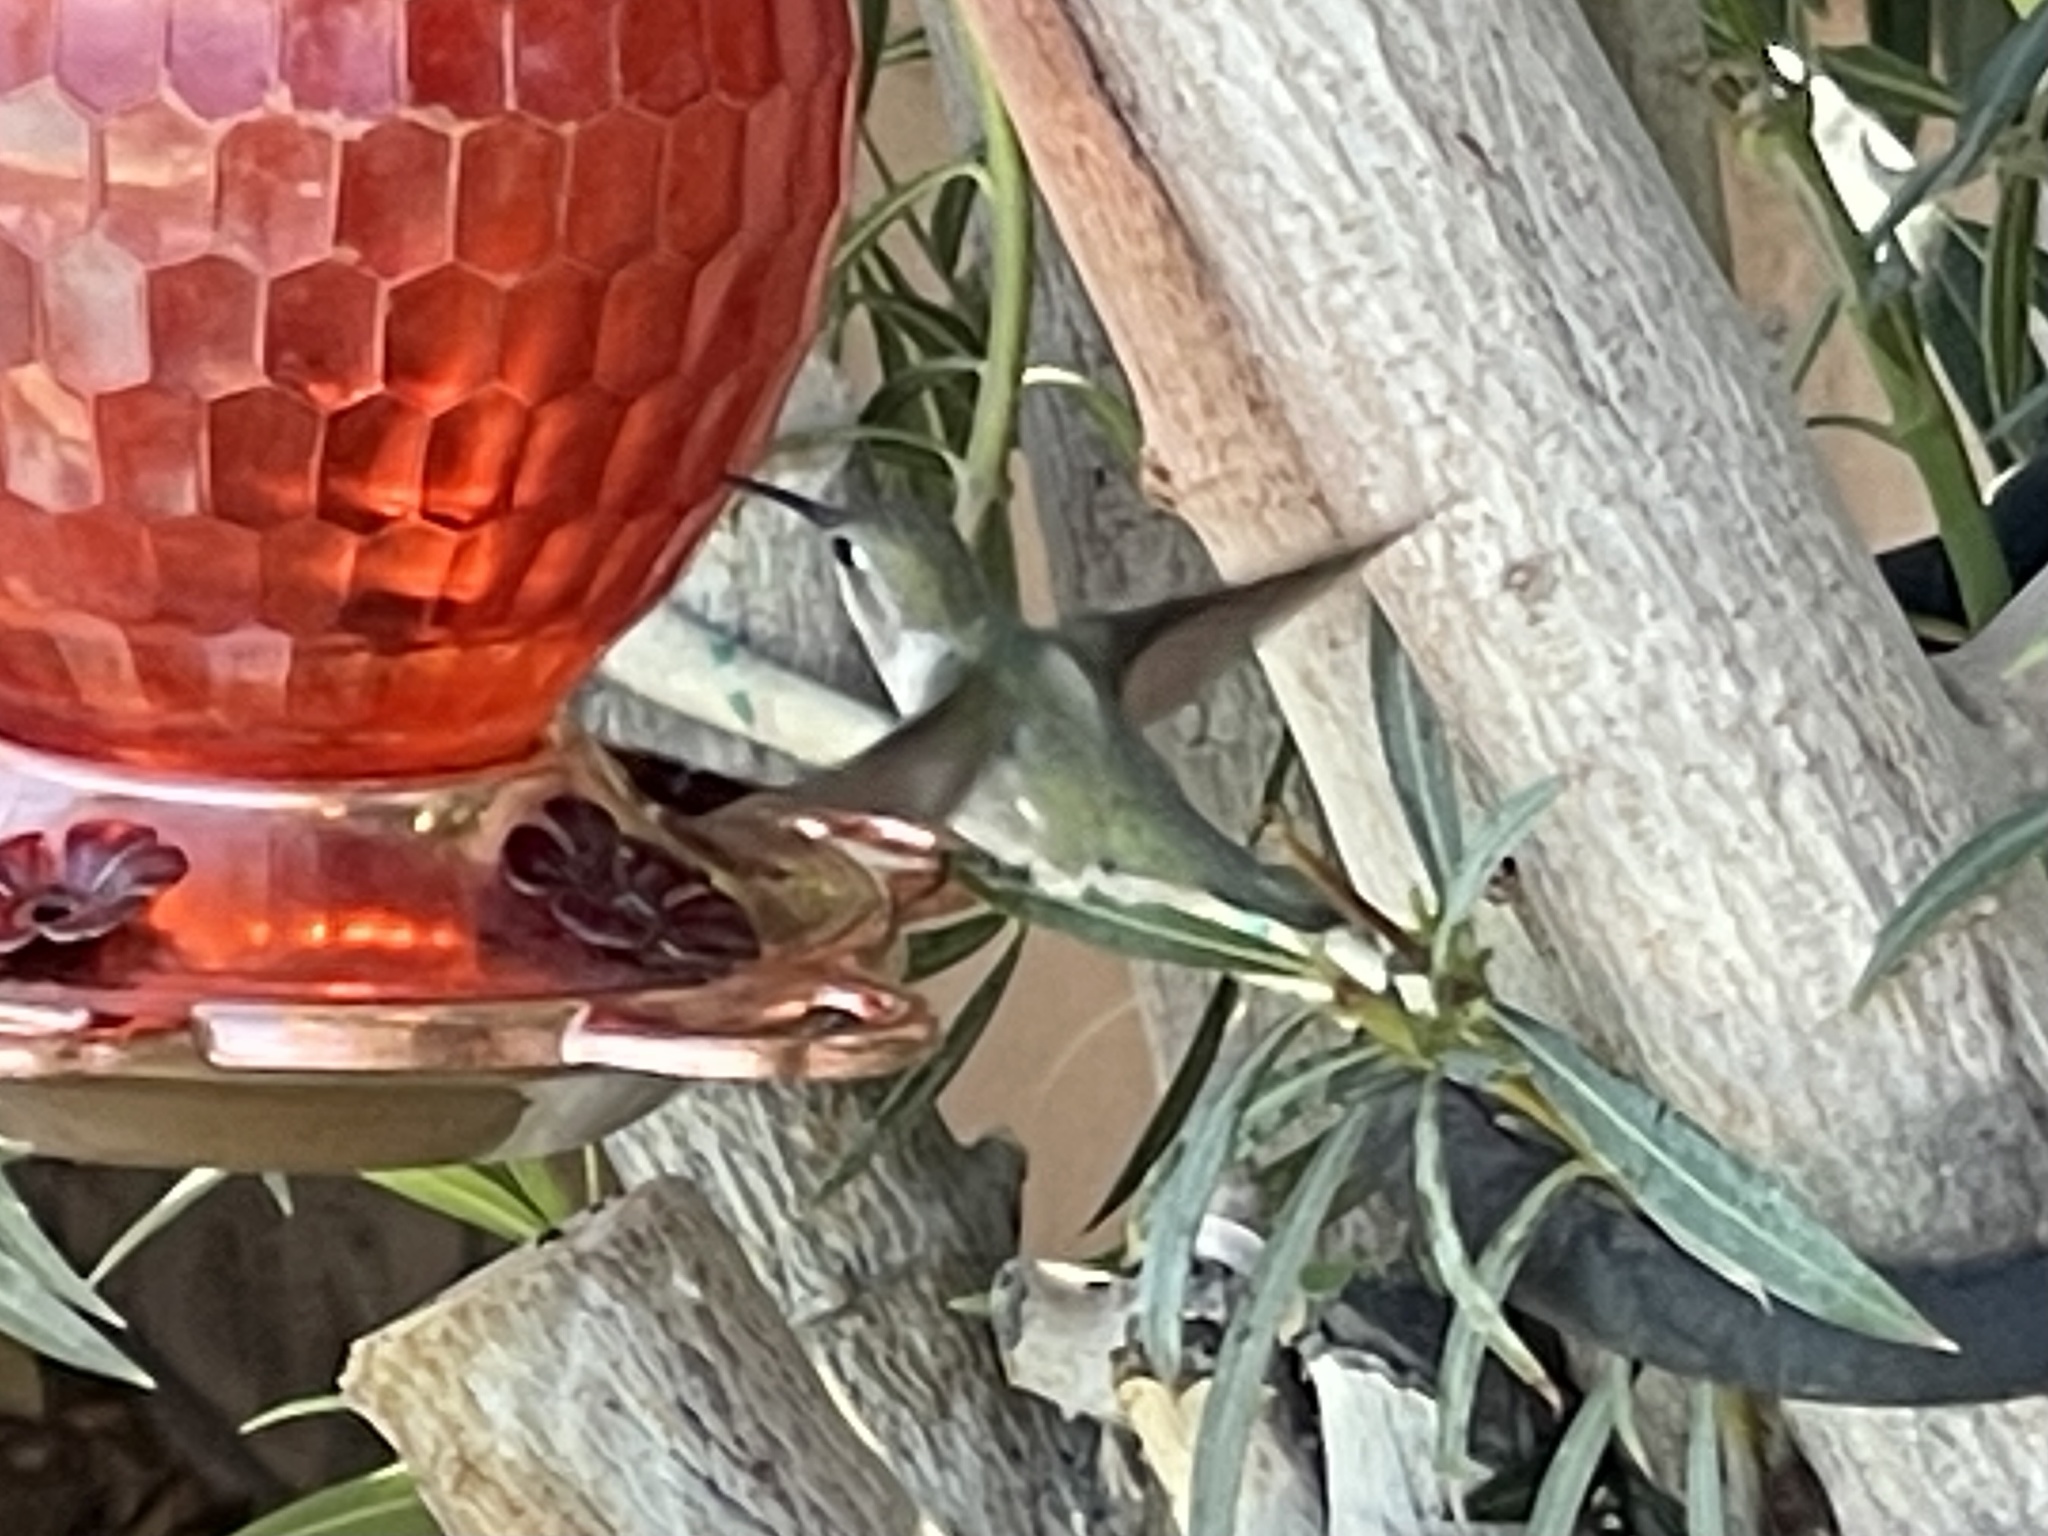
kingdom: Animalia
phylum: Chordata
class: Aves
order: Apodiformes
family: Trochilidae
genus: Calypte
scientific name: Calypte costae
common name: Costa's hummingbird
